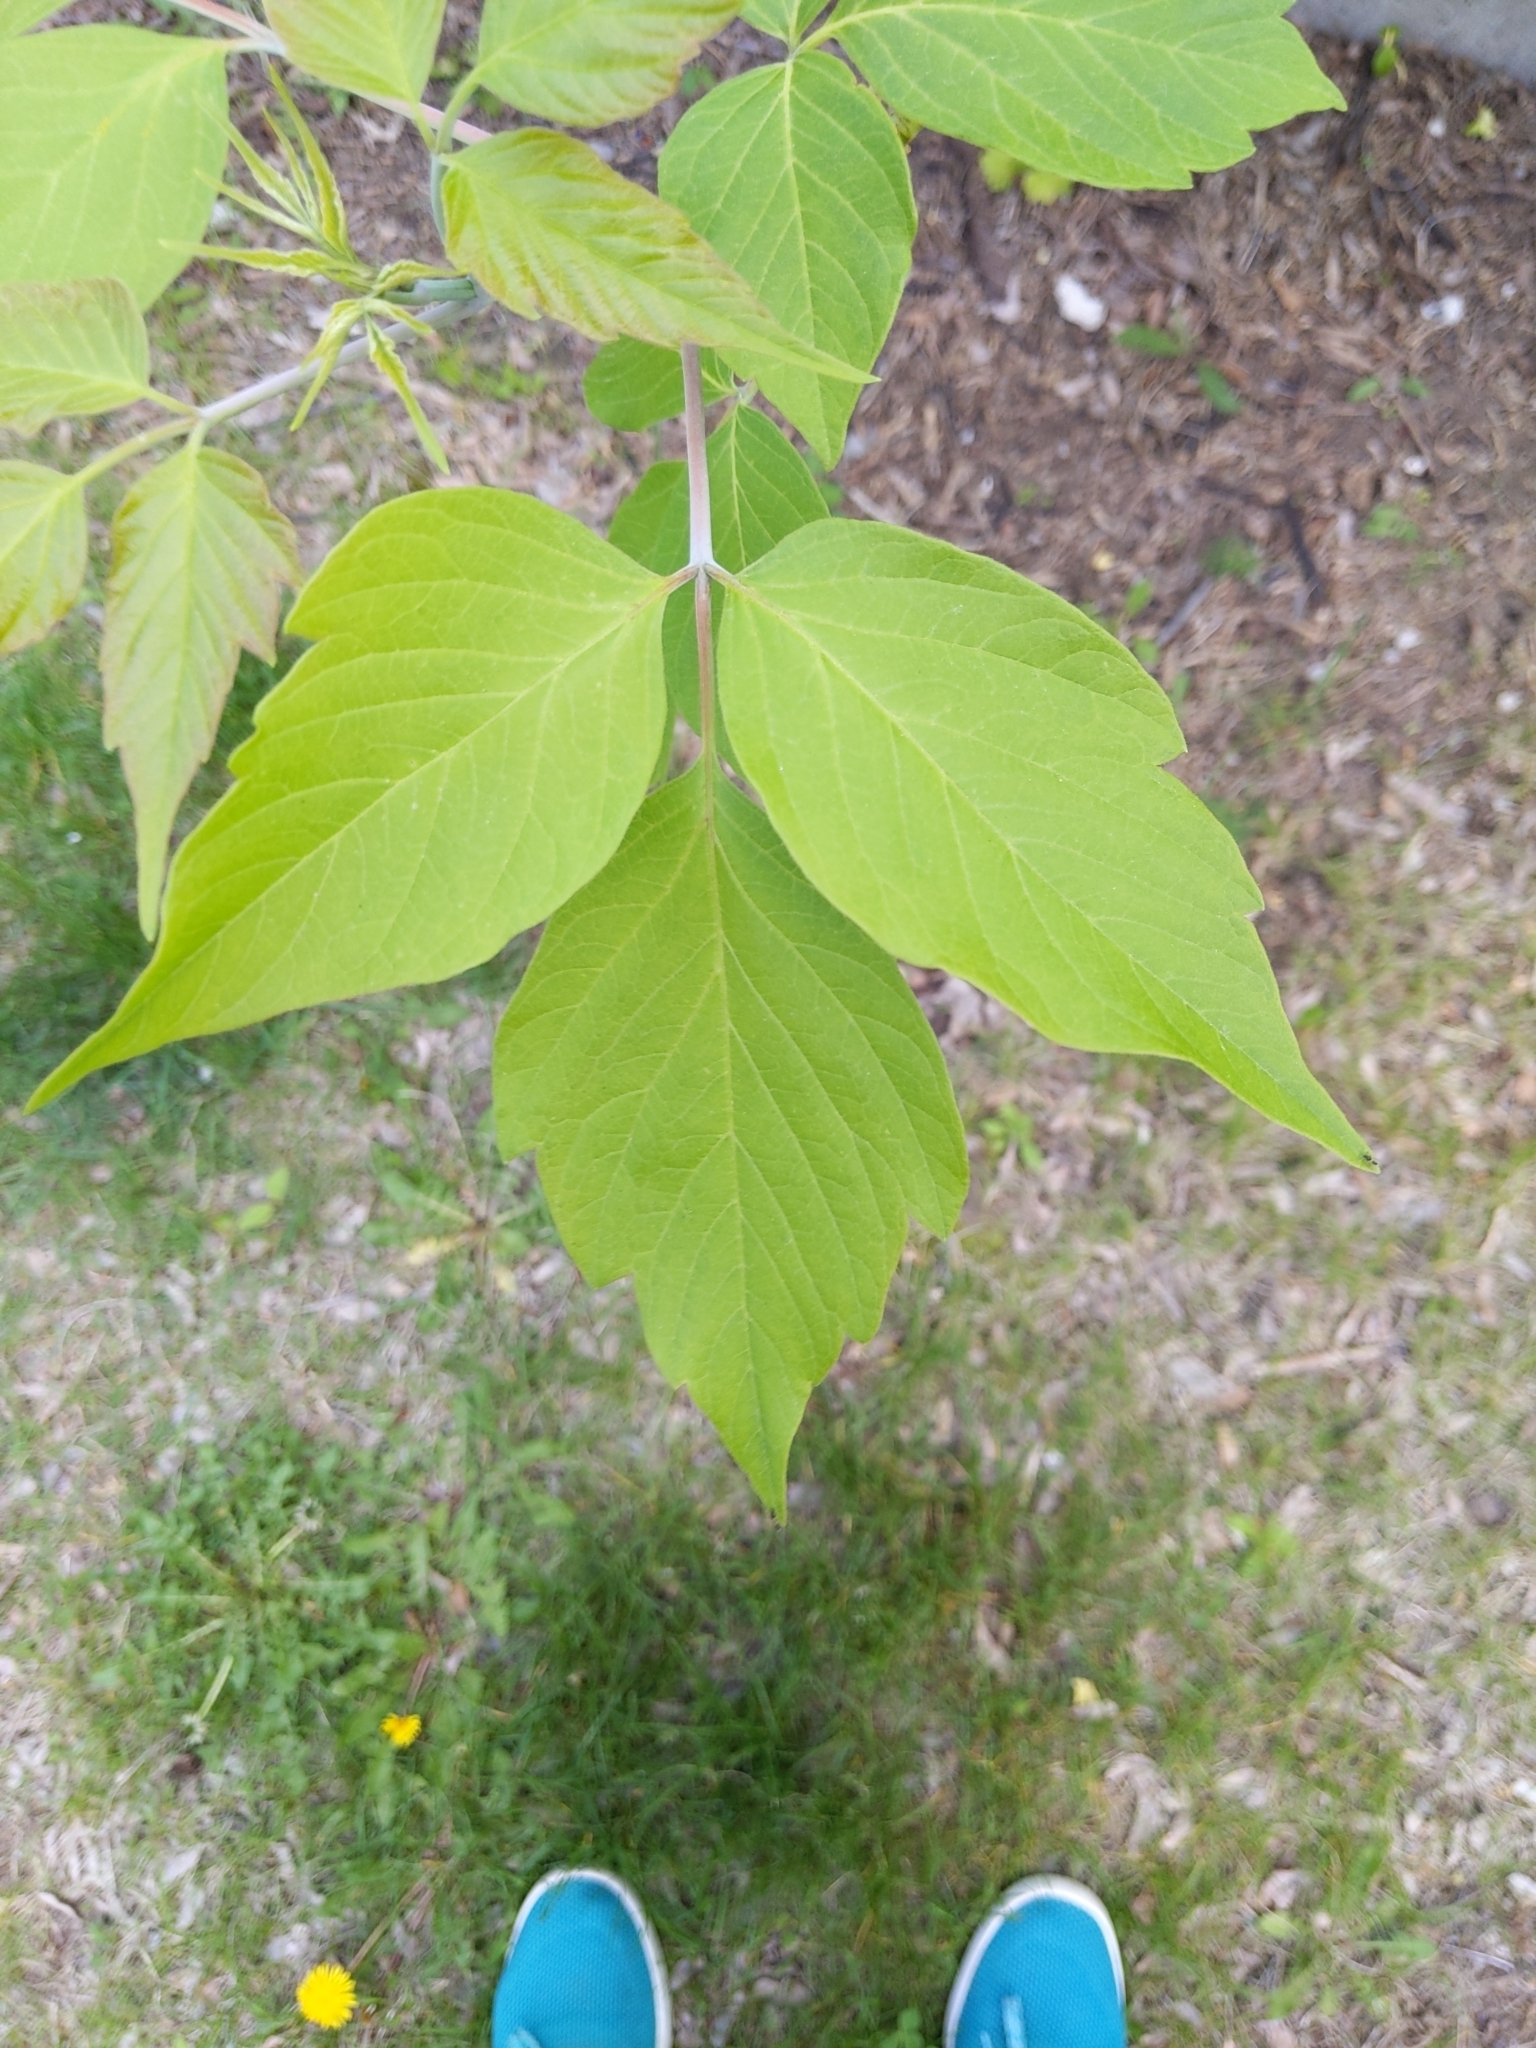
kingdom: Plantae
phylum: Tracheophyta
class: Magnoliopsida
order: Sapindales
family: Sapindaceae
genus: Acer
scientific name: Acer negundo
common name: Ashleaf maple
